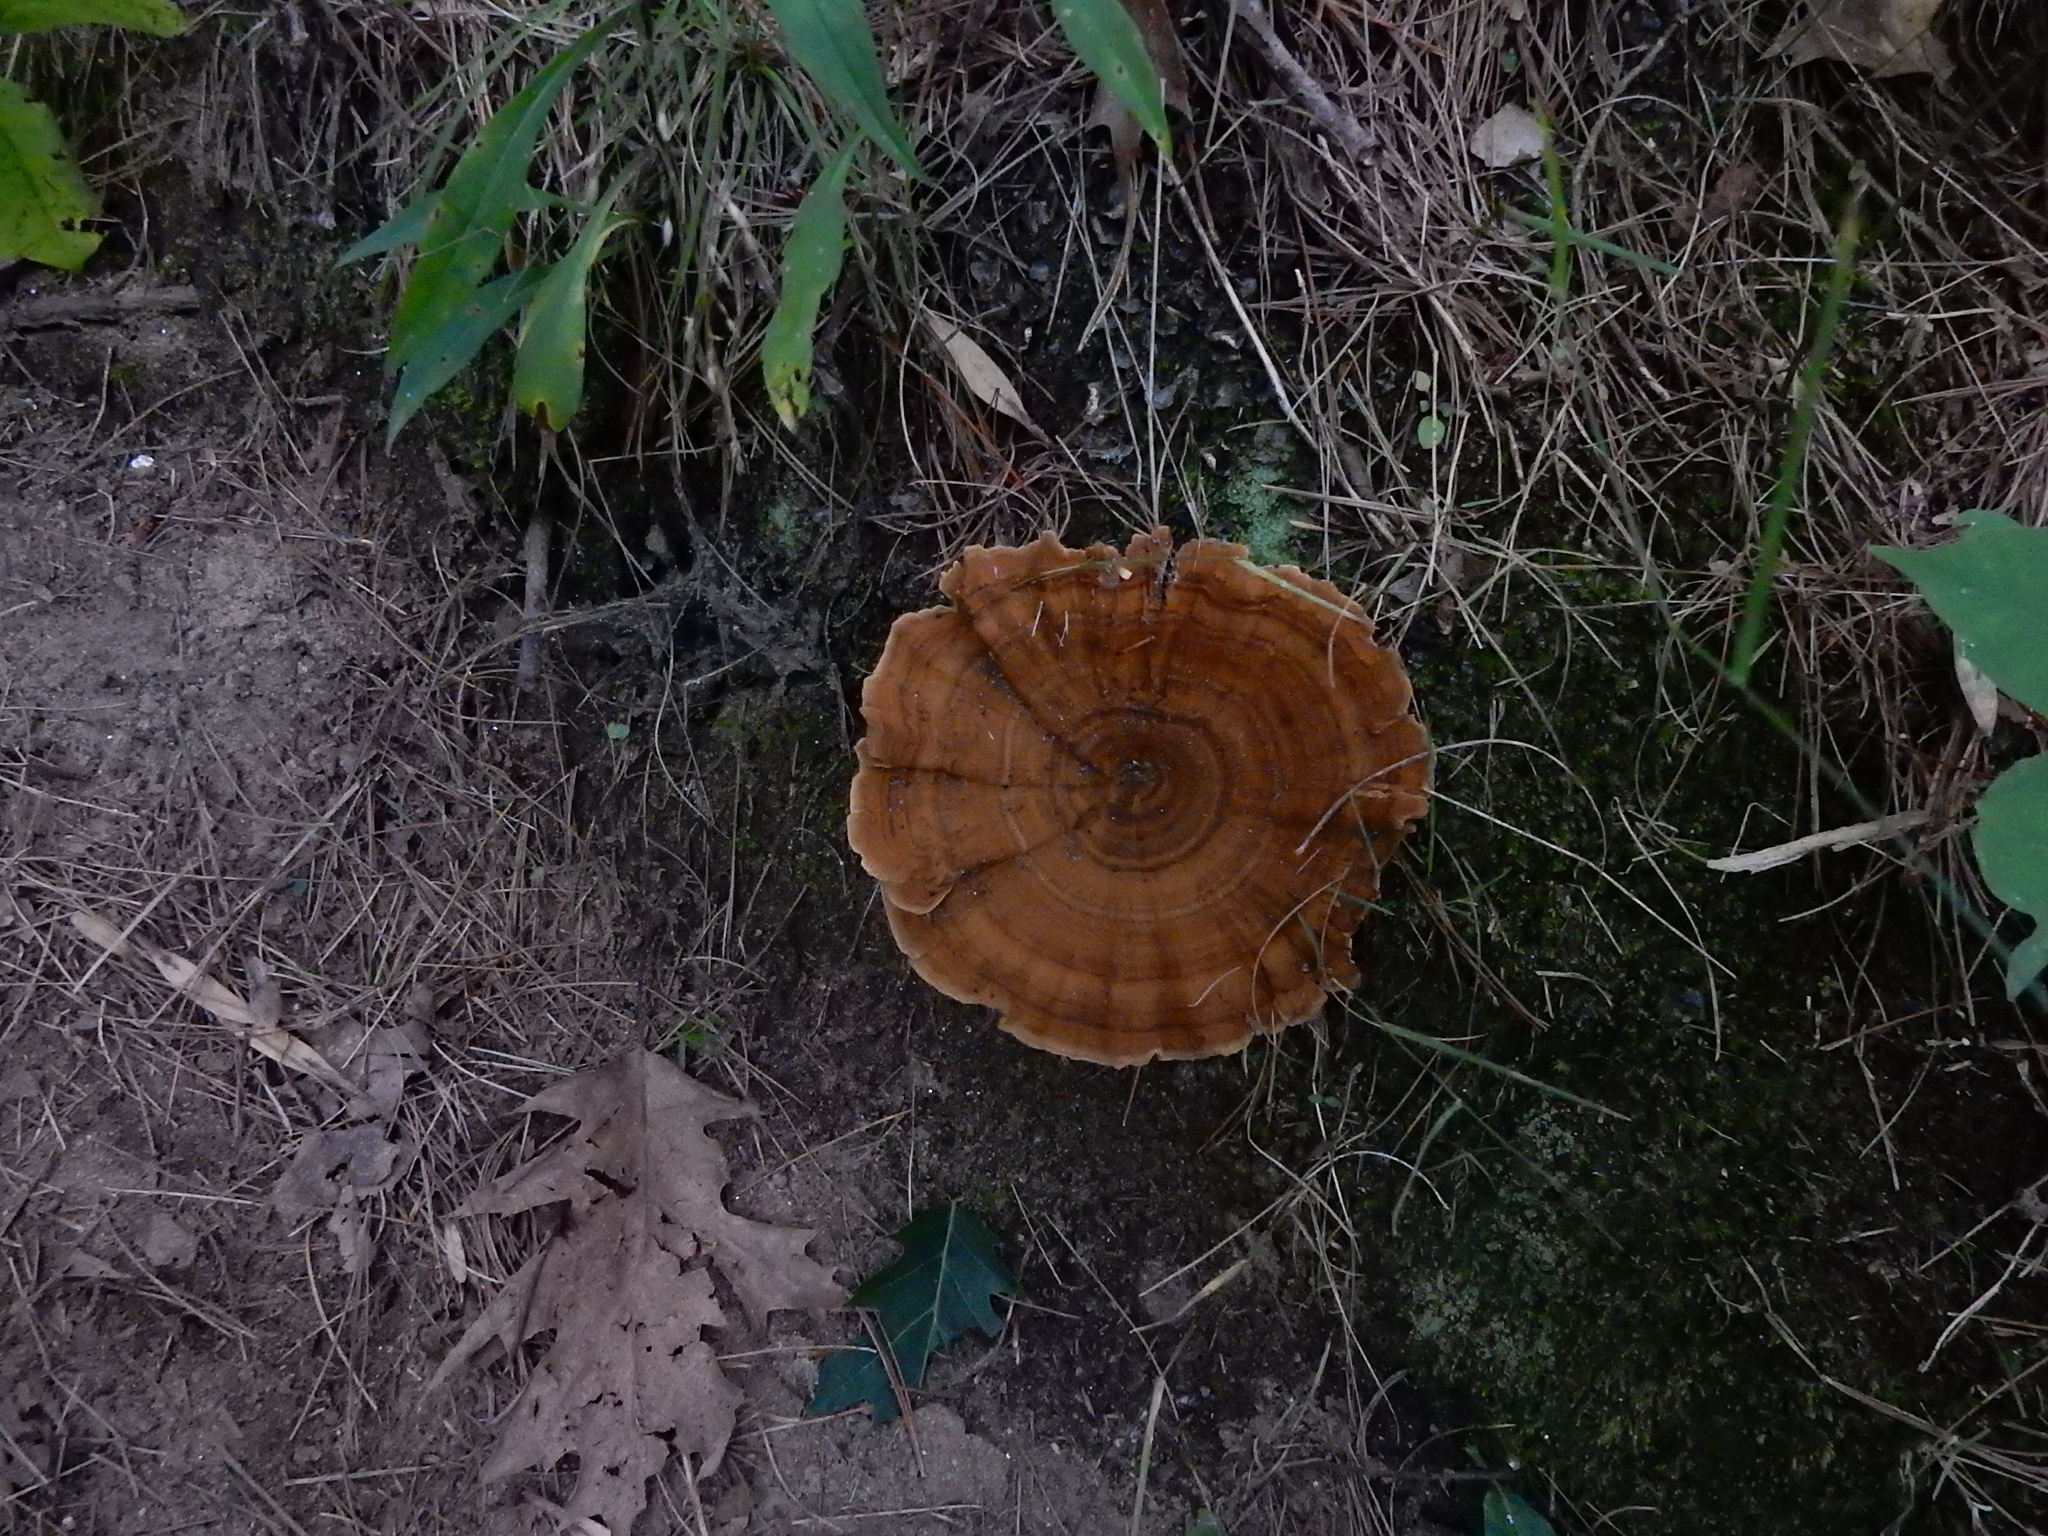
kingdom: Fungi
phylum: Basidiomycota
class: Agaricomycetes
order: Hymenochaetales
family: Hymenochaetaceae
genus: Coltricia
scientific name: Coltricia perennis
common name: Tiger's eye
